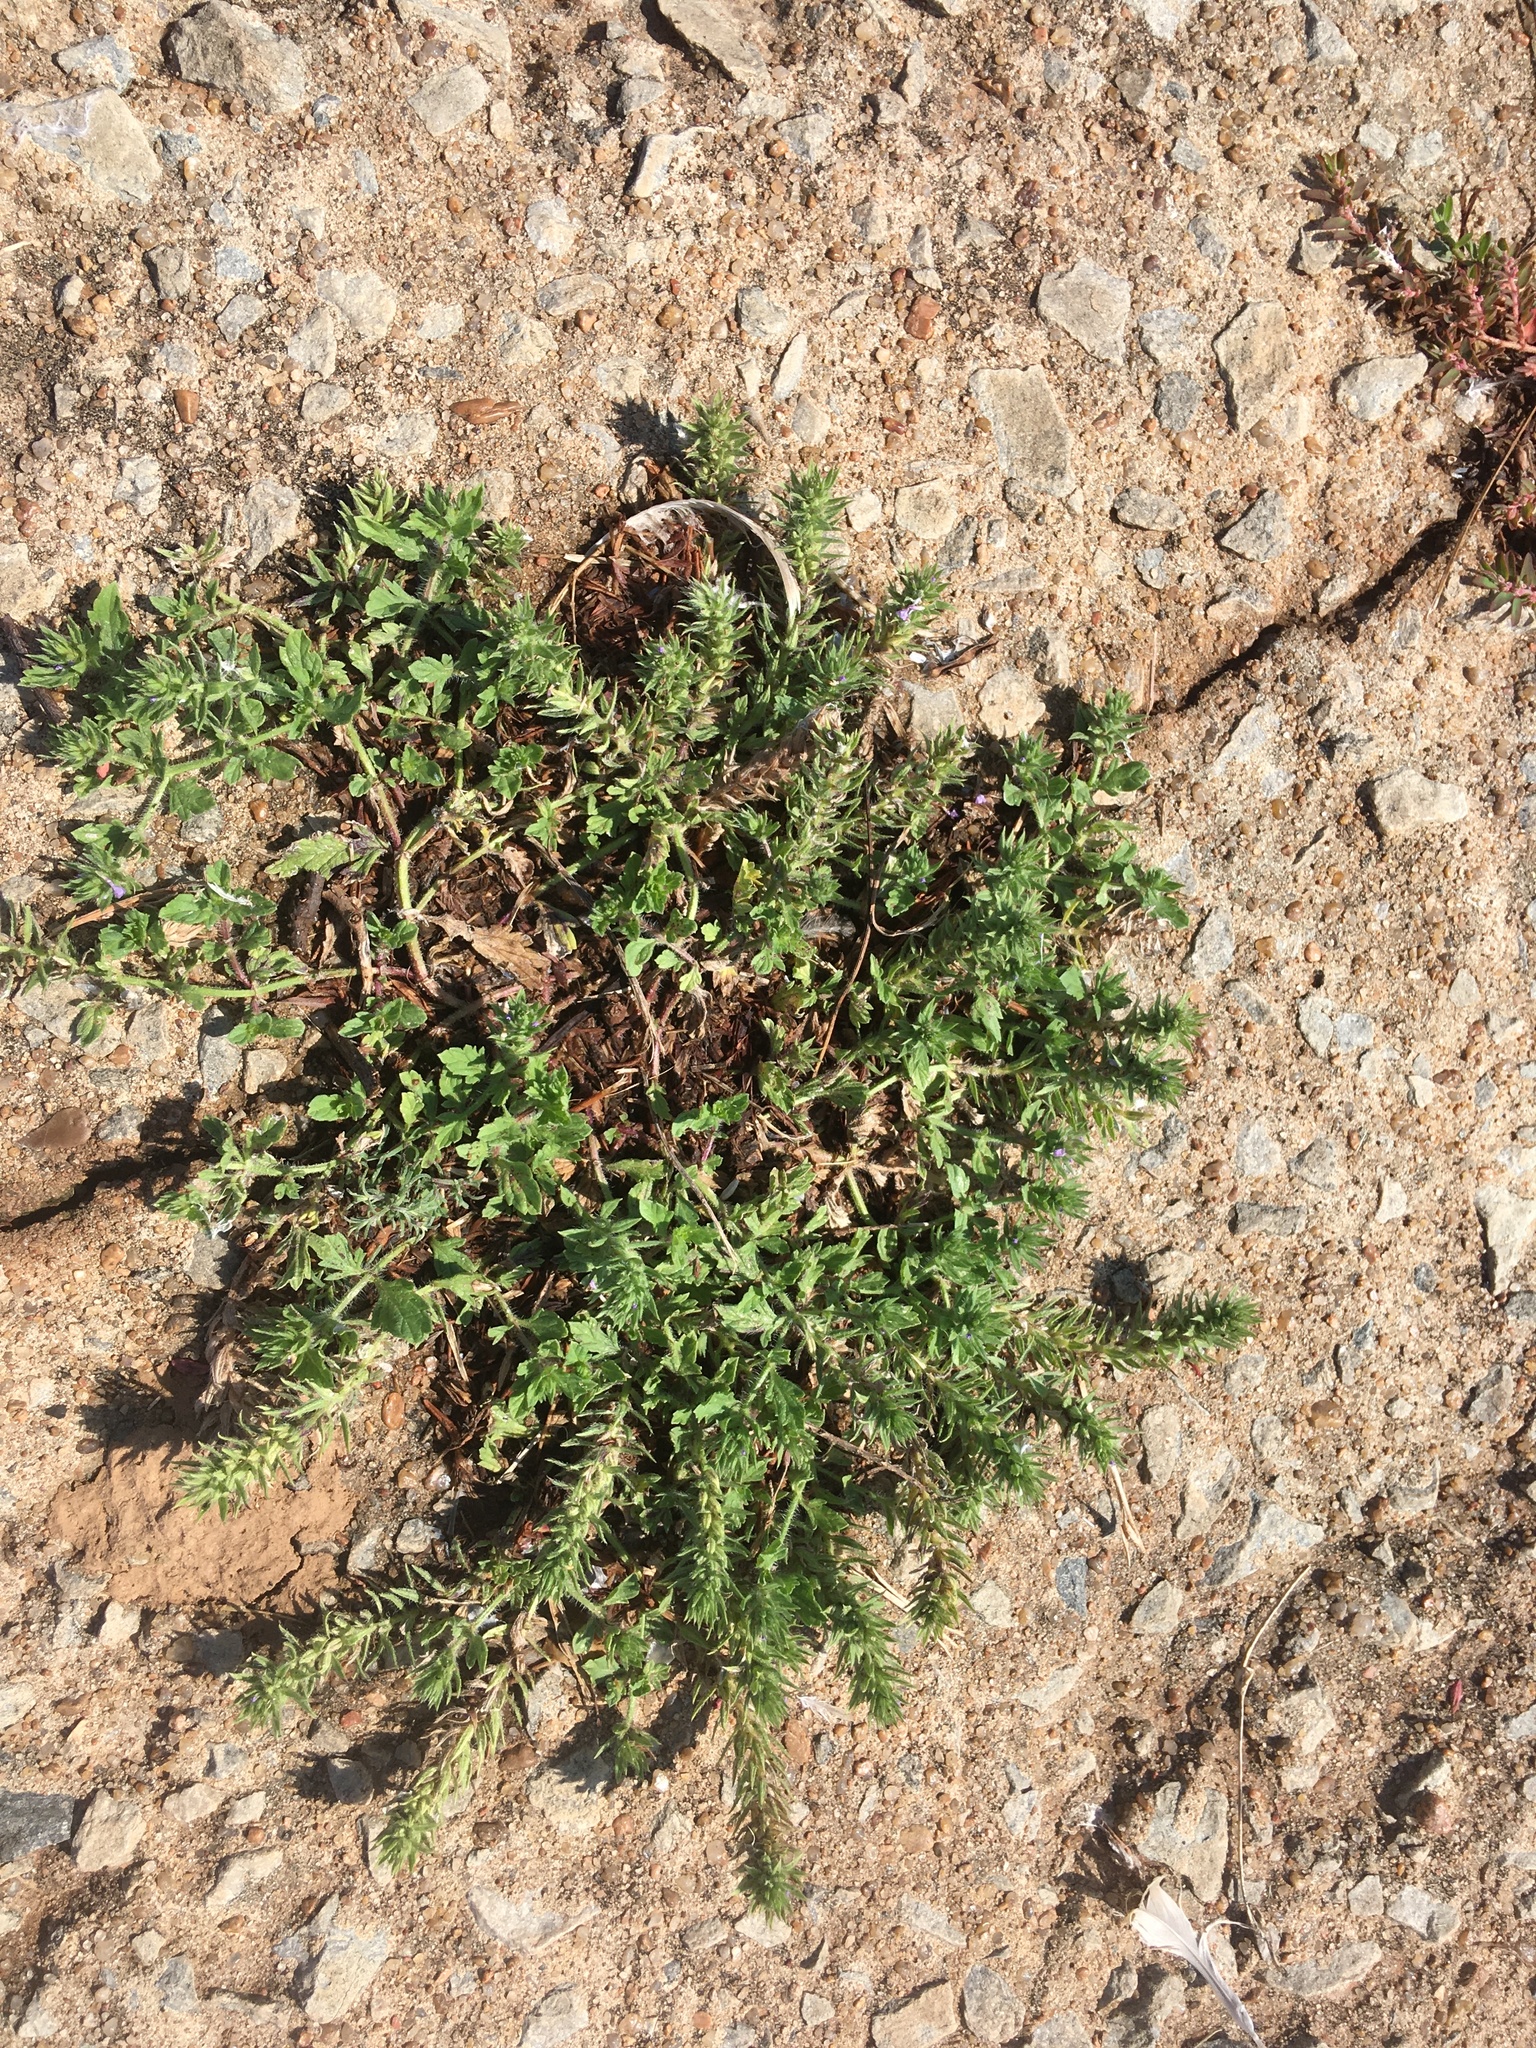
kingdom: Plantae
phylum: Tracheophyta
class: Magnoliopsida
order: Lamiales
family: Verbenaceae
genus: Verbena
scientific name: Verbena bracteata
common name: Bracted vervain
